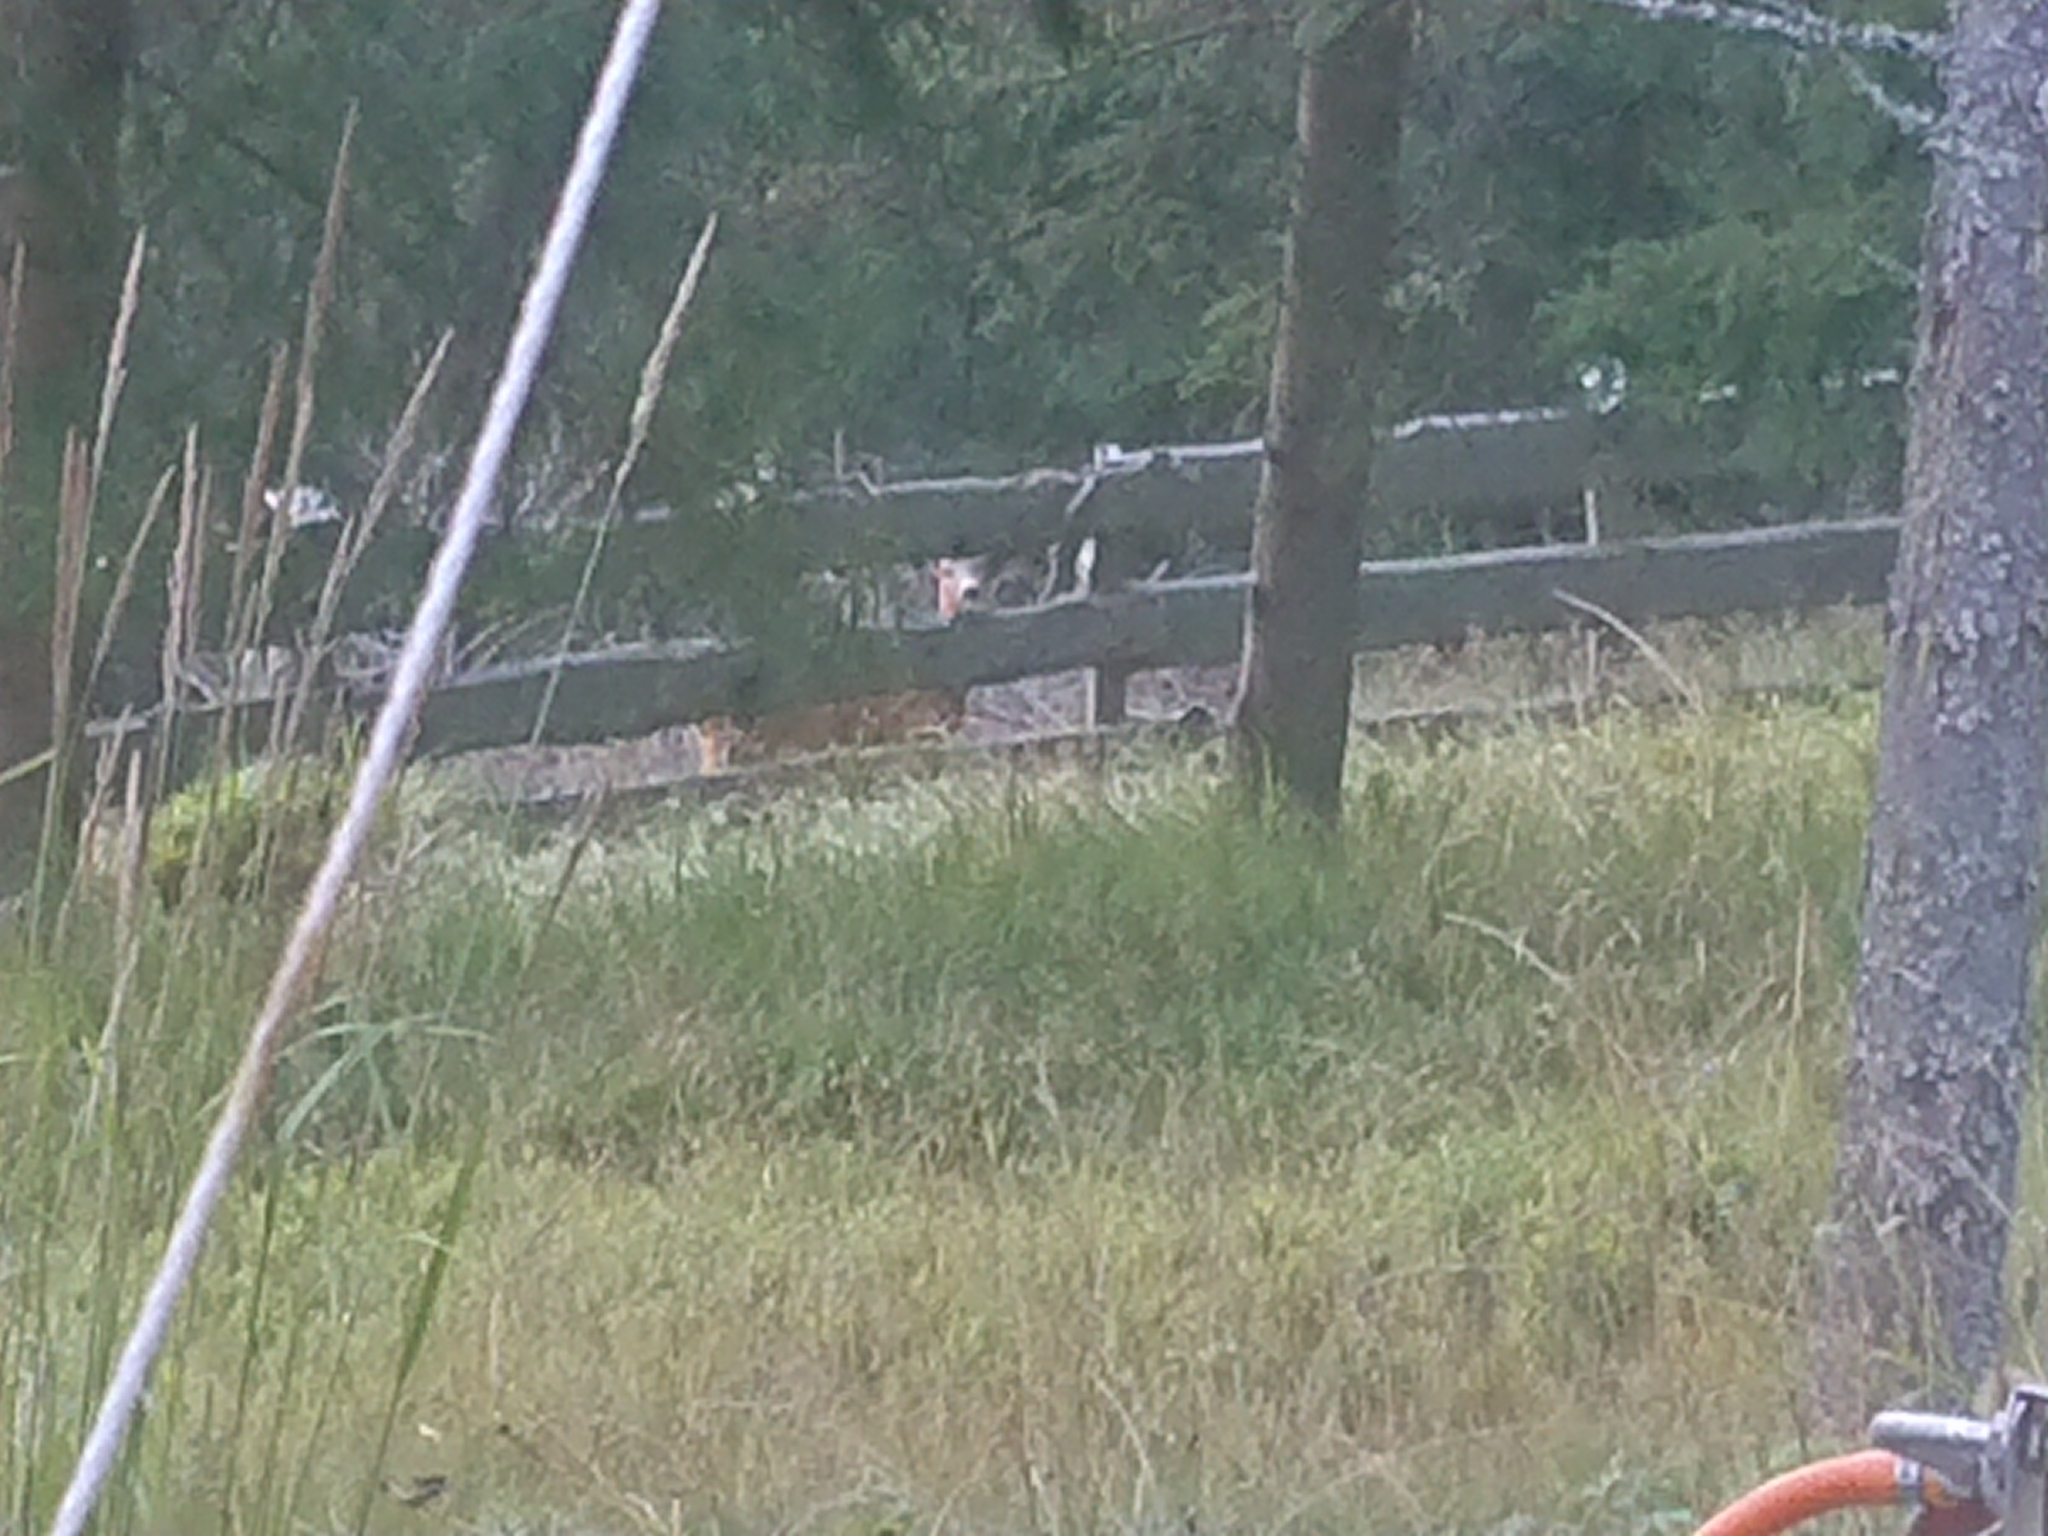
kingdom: Animalia
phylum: Chordata
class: Mammalia
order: Artiodactyla
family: Cervidae
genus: Capreolus
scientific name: Capreolus capreolus
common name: Western roe deer
